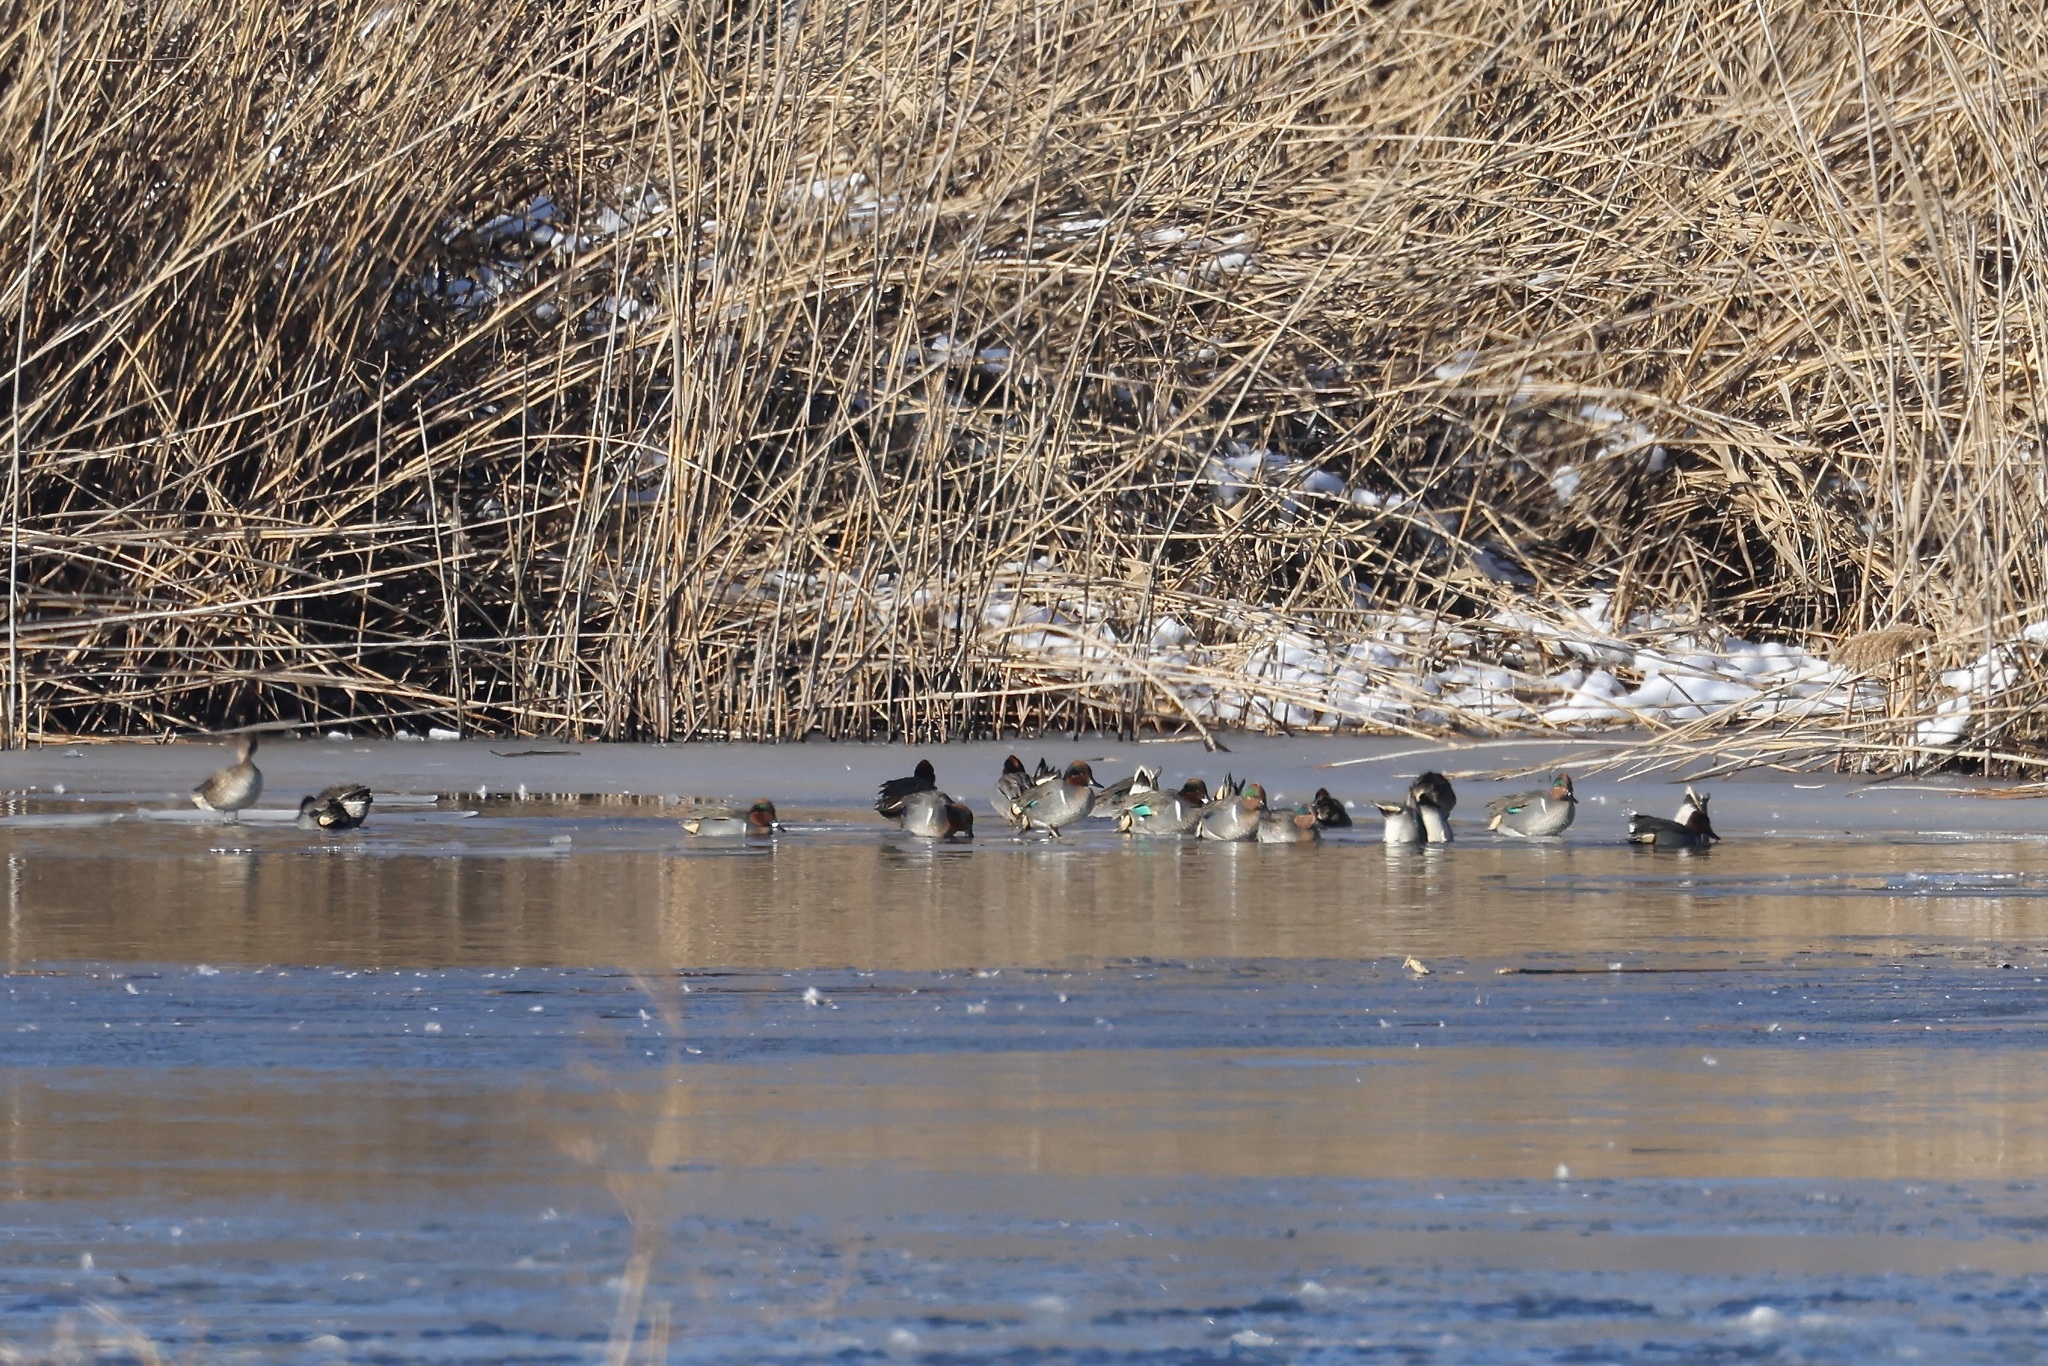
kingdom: Animalia
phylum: Chordata
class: Aves
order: Anseriformes
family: Anatidae
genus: Anas
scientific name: Anas crecca
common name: Eurasian teal
